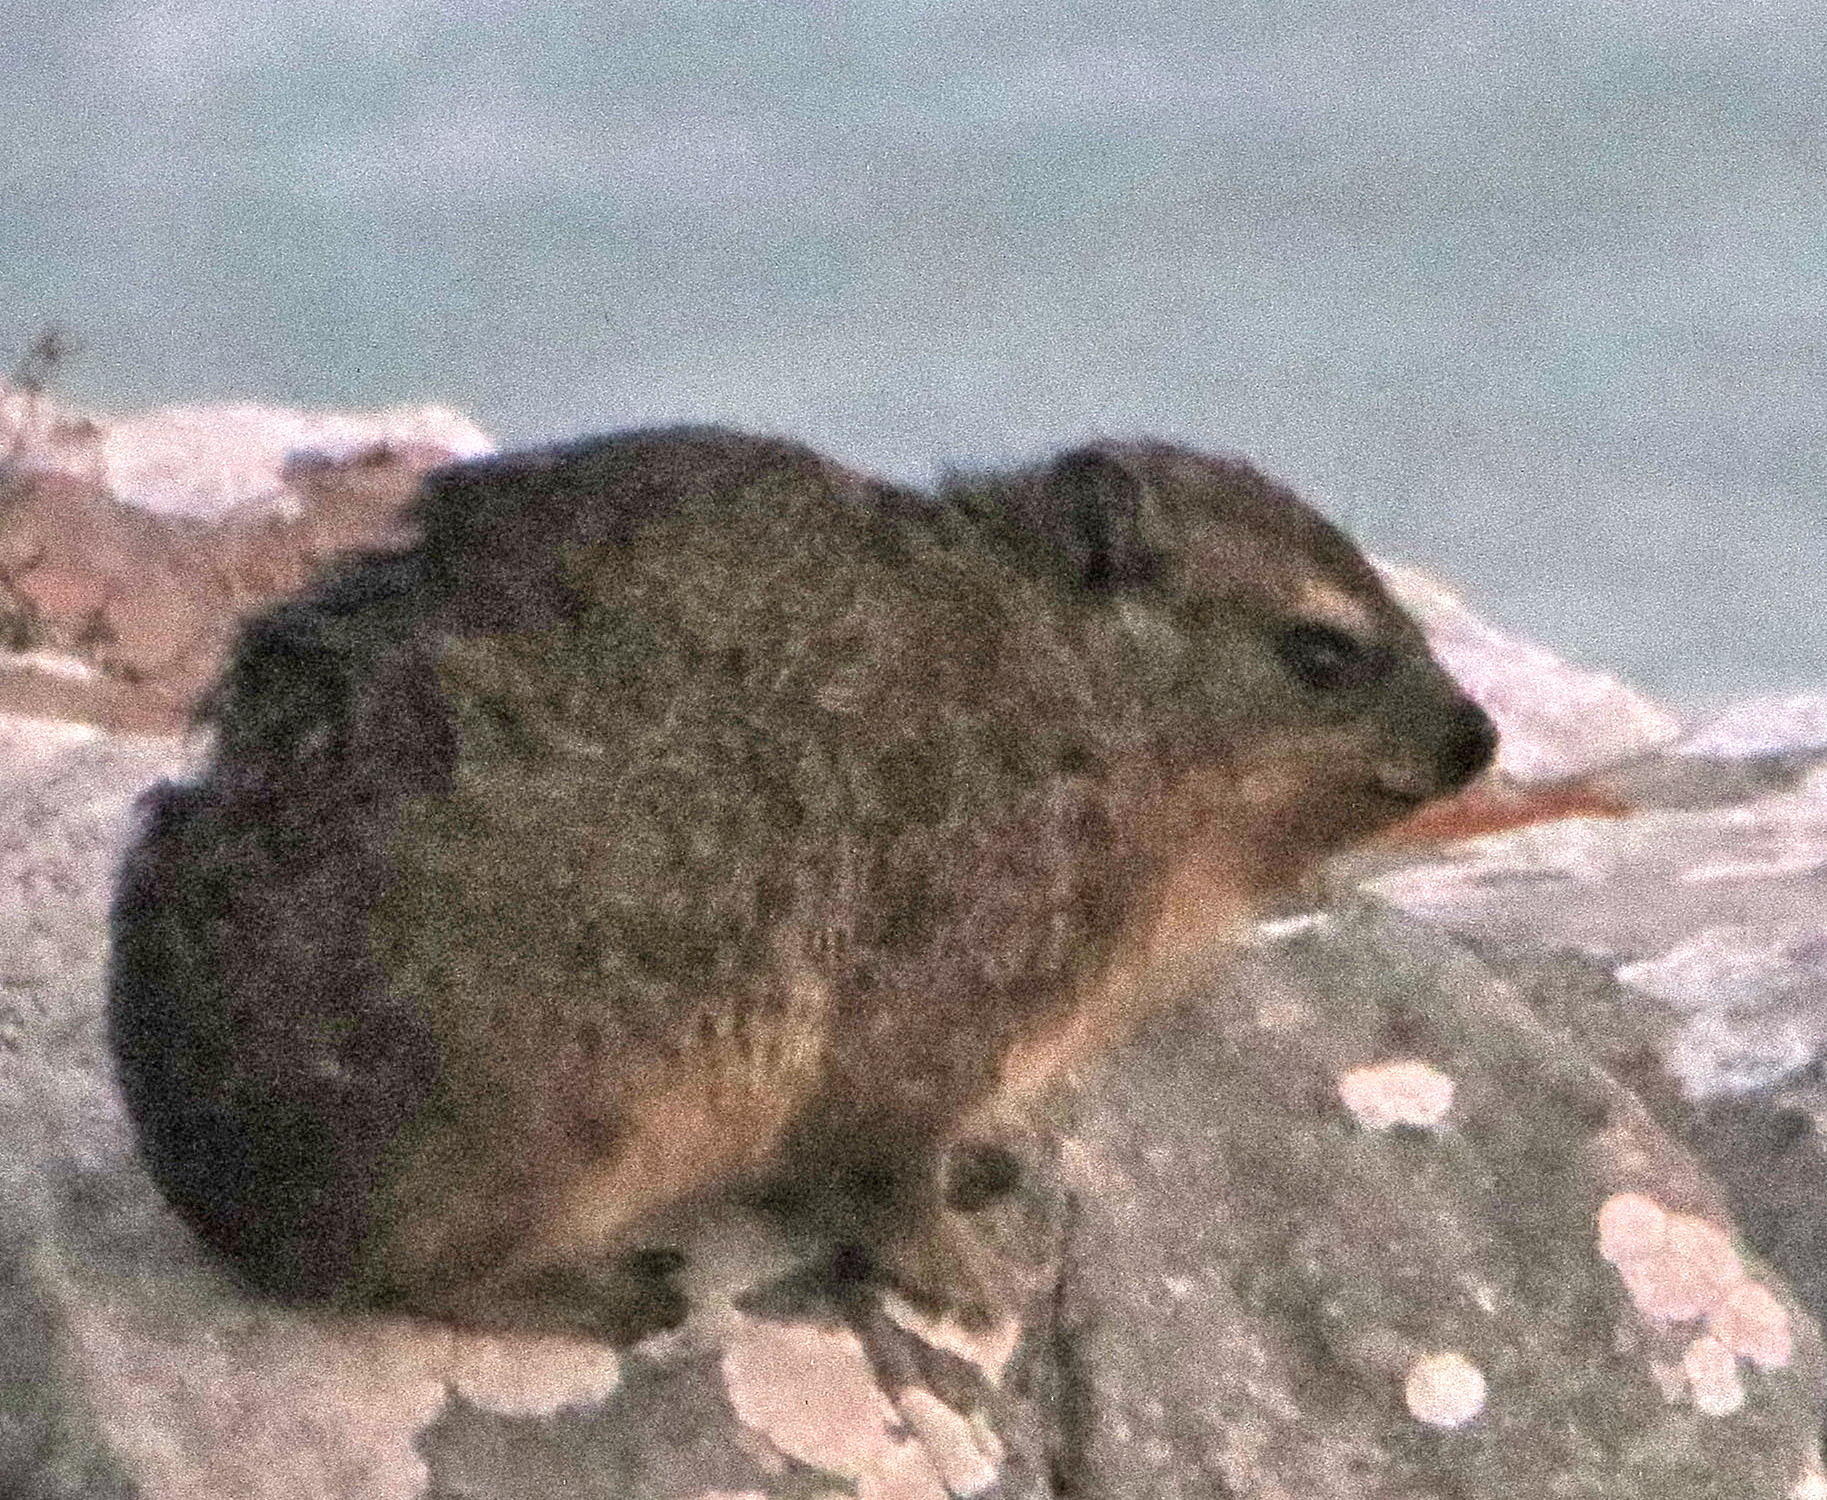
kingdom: Animalia
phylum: Chordata
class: Mammalia
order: Hyracoidea
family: Procaviidae
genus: Procavia
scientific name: Procavia capensis
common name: Rock hyrax
